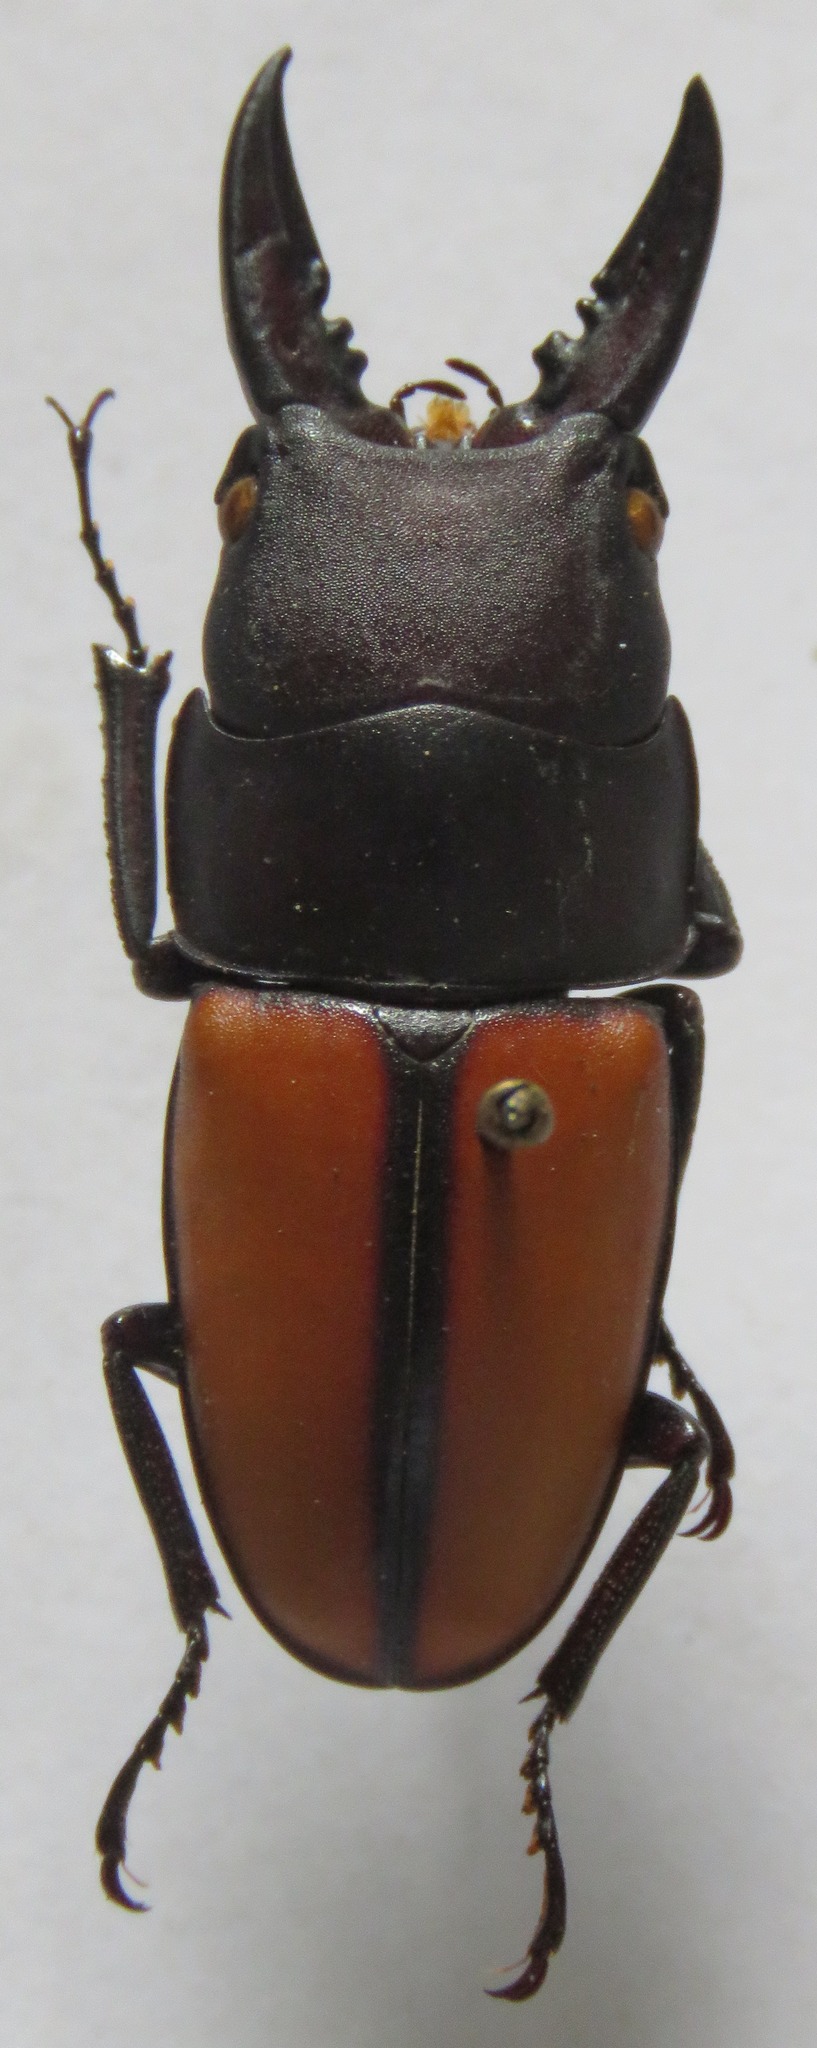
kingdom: Animalia
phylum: Arthropoda
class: Insecta
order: Coleoptera
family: Lucanidae
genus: Prosopocoilus
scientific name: Prosopocoilus doris
